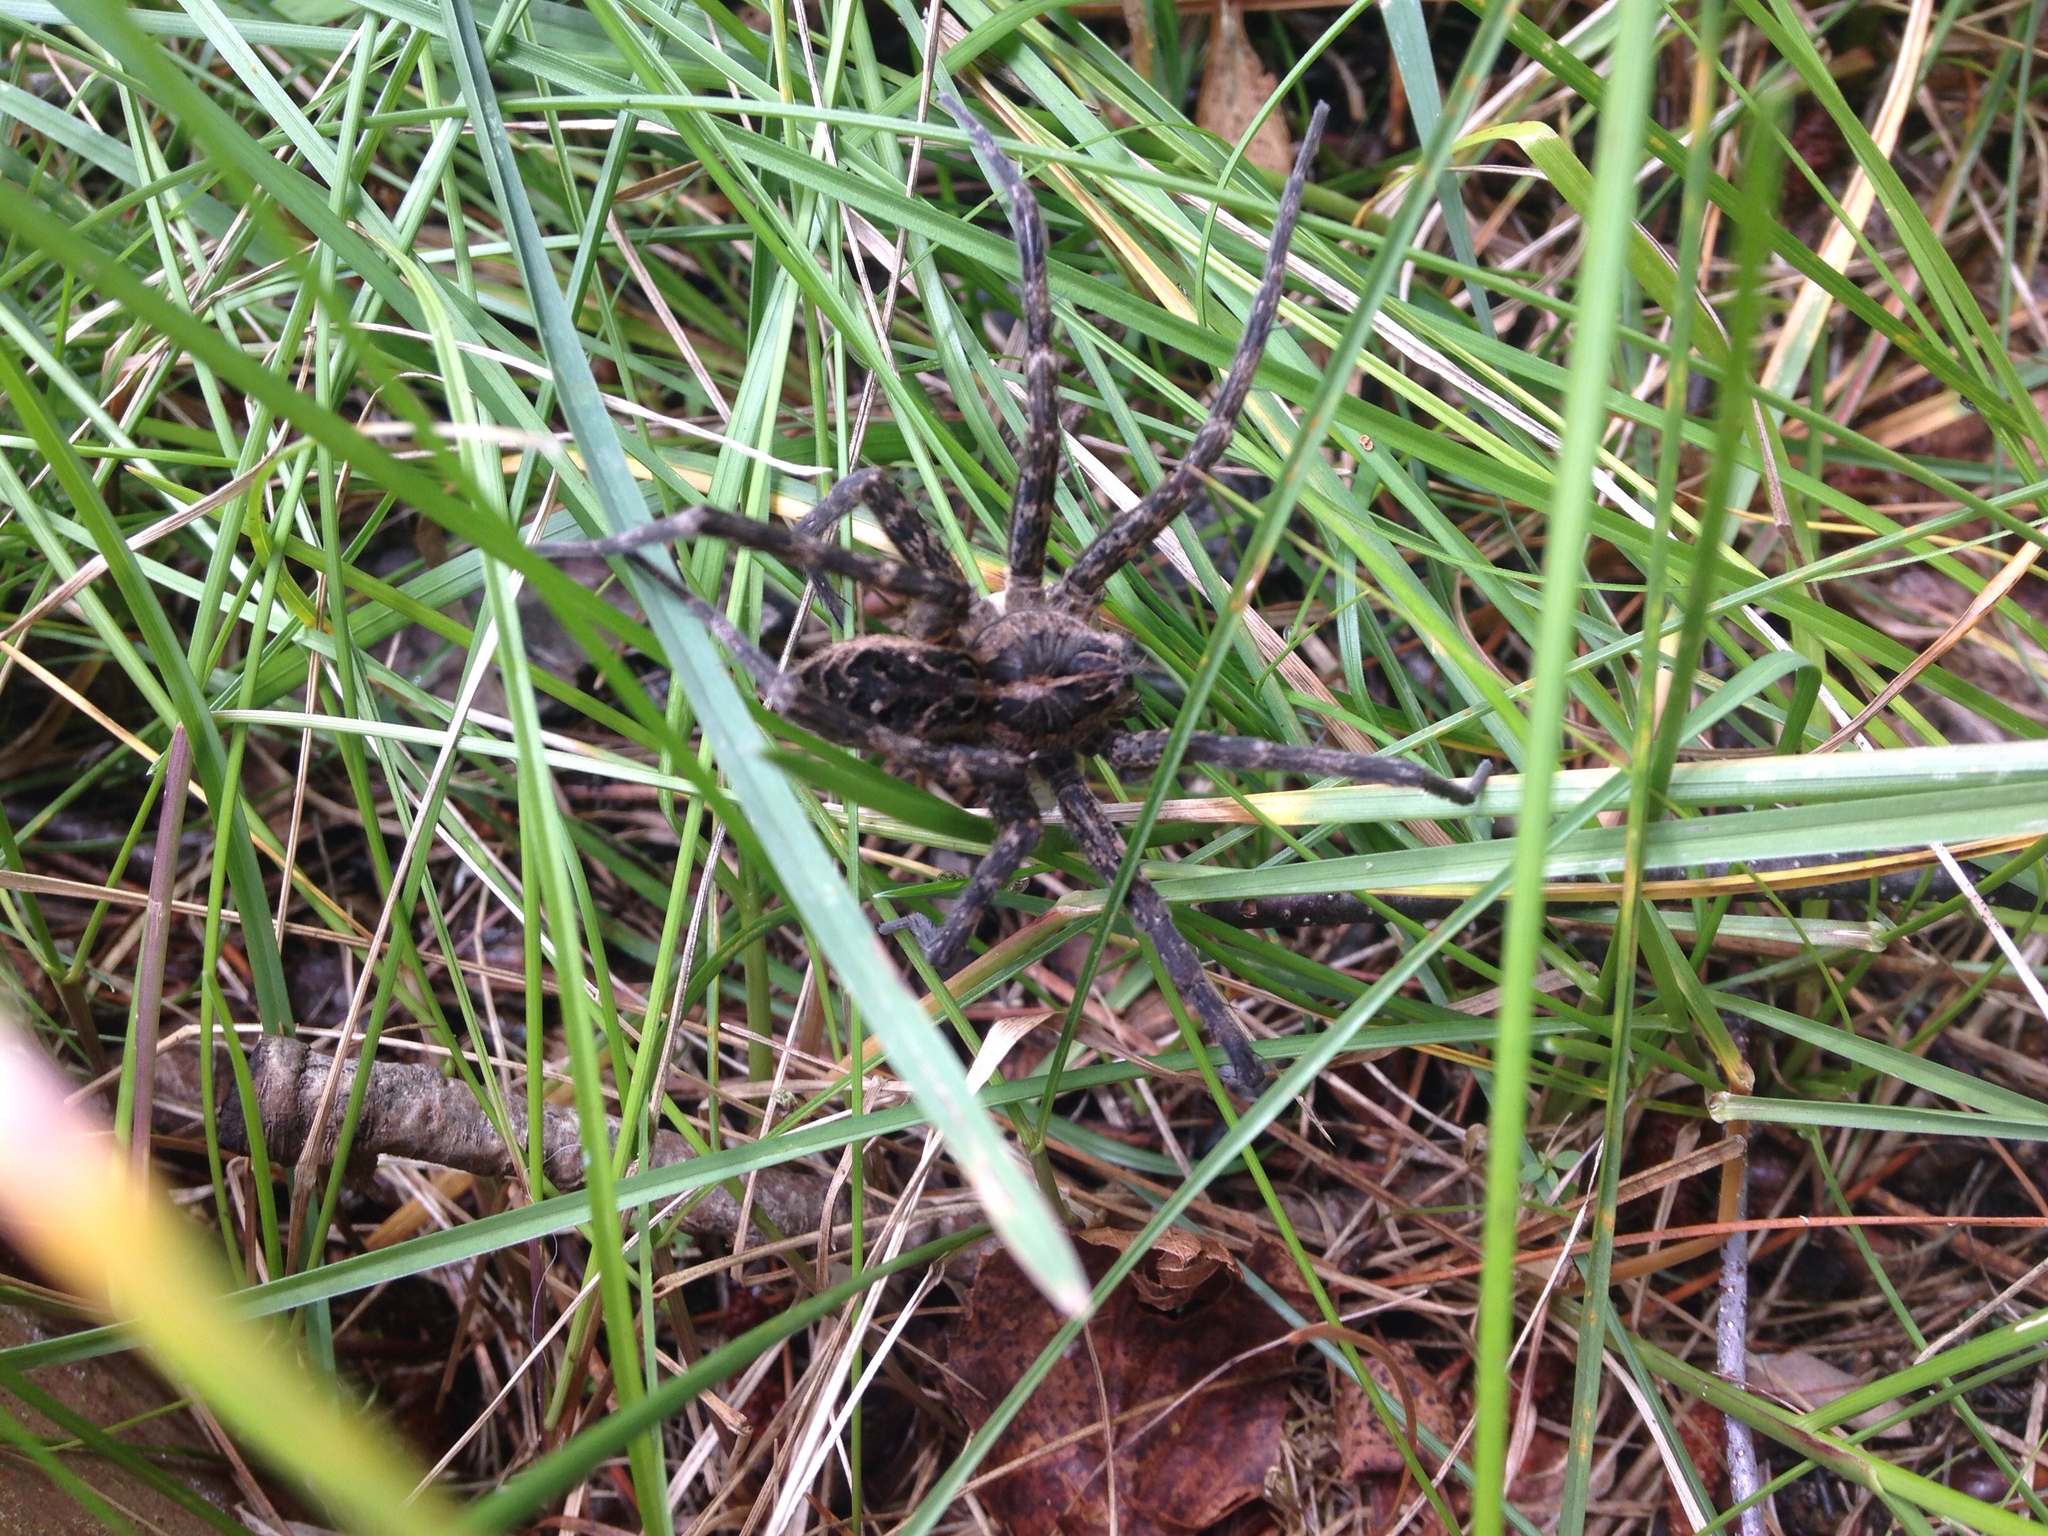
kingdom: Animalia
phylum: Arthropoda
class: Arachnida
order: Araneae
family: Pisauridae
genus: Dolomedes
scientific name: Dolomedes scriptus
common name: Striped fishing spider
